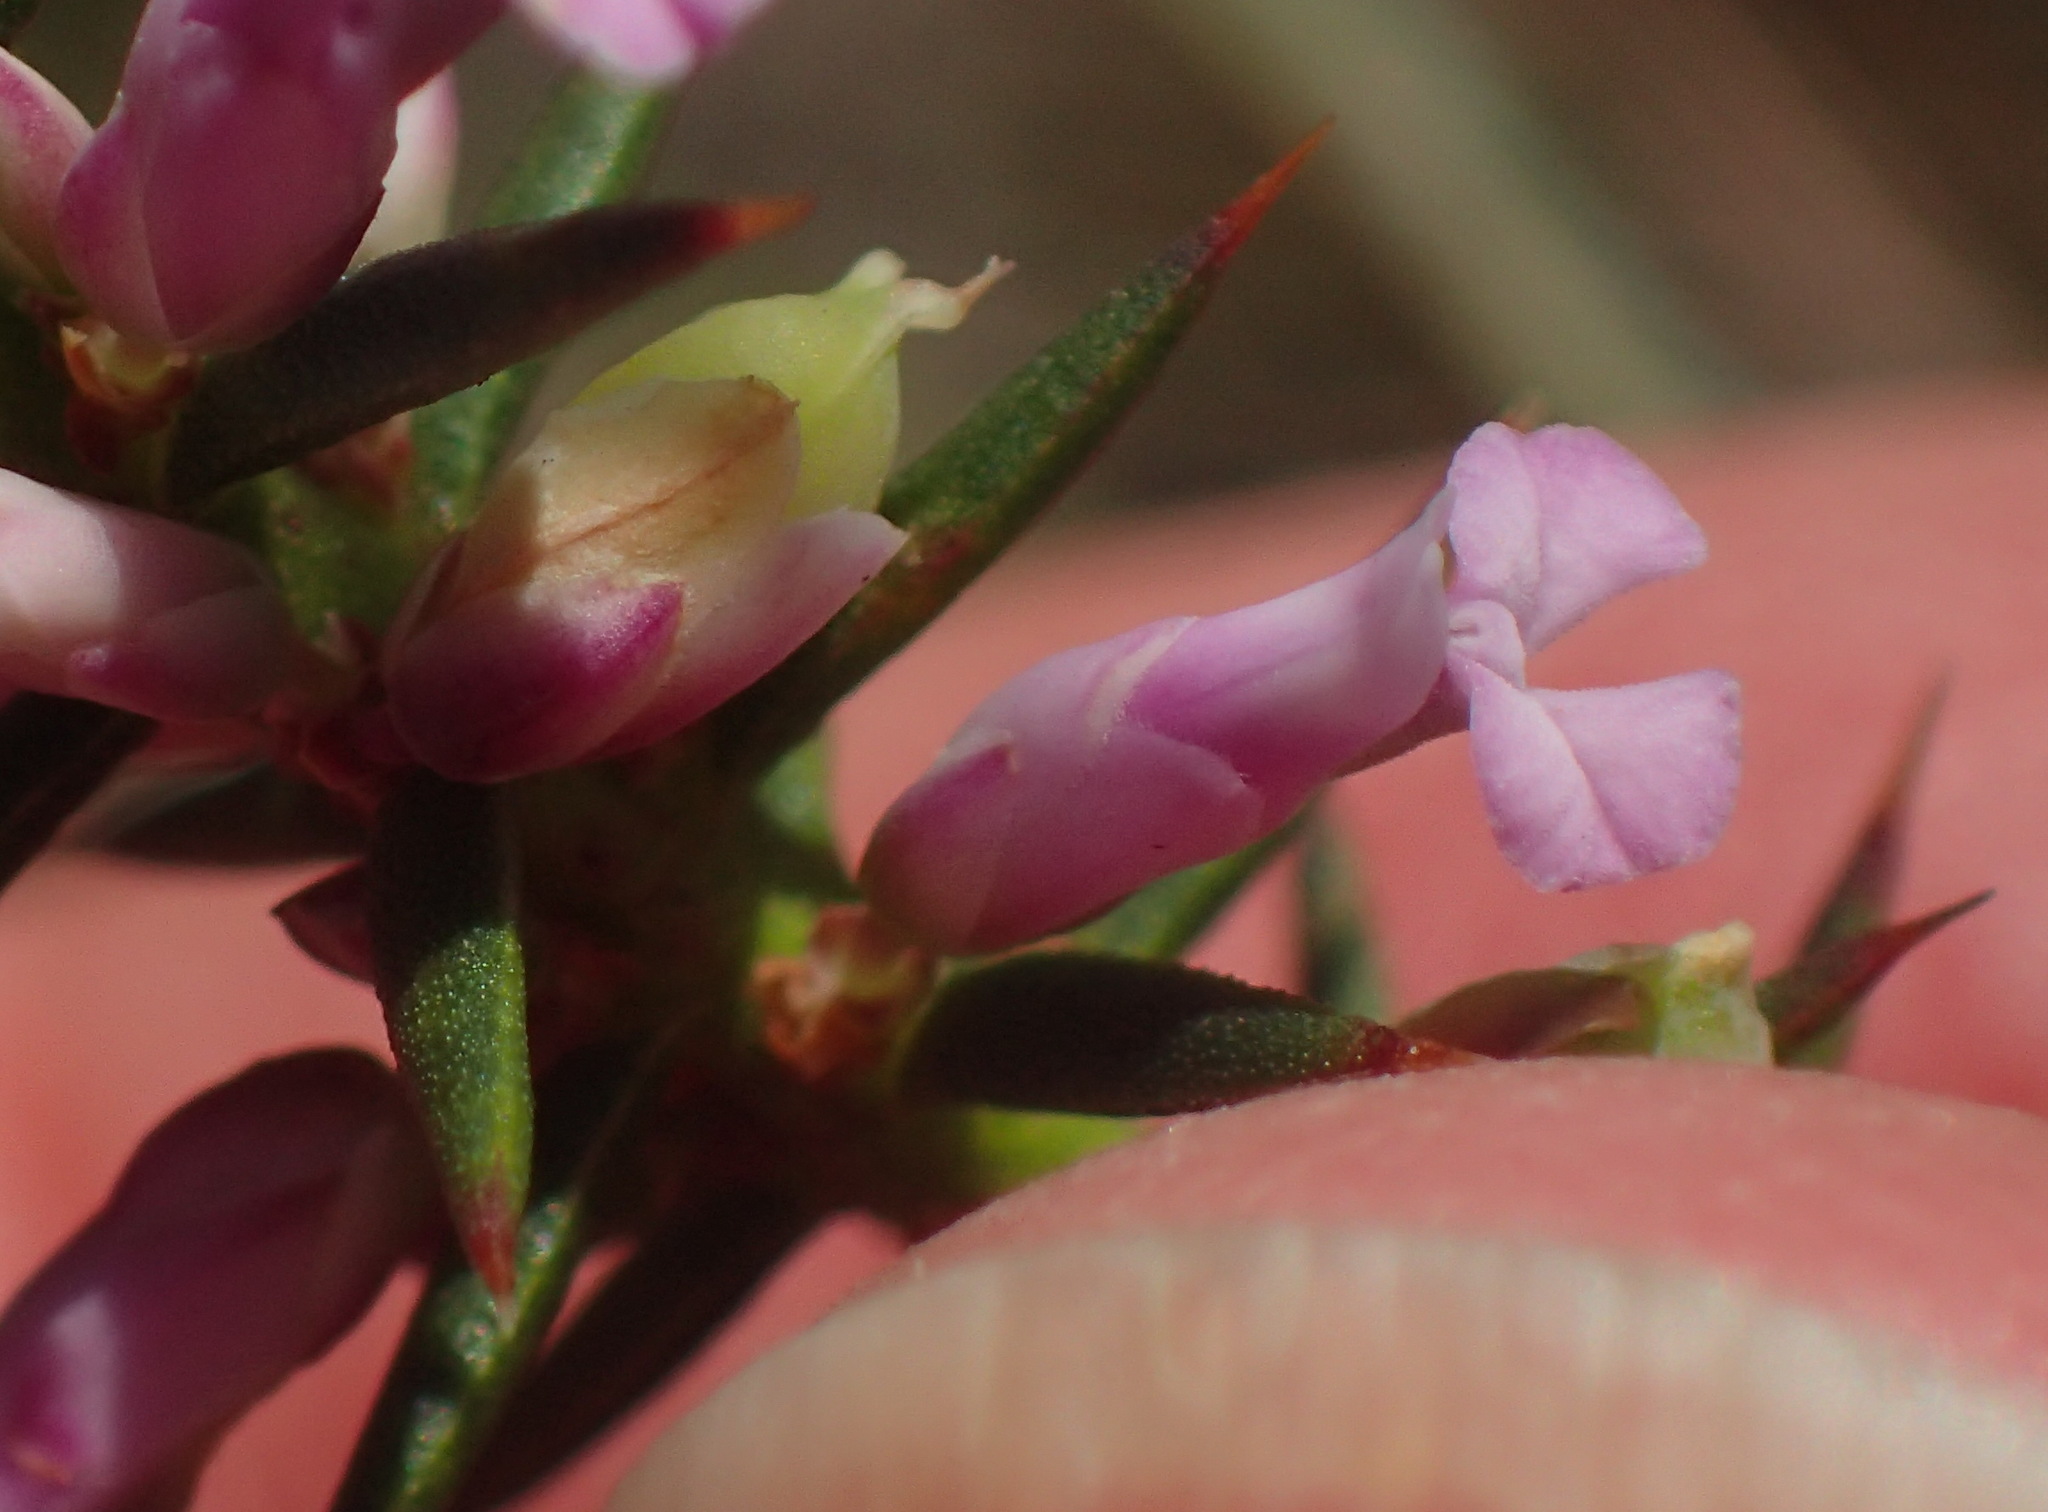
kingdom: Plantae
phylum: Tracheophyta
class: Magnoliopsida
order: Fabales
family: Polygalaceae
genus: Muraltia
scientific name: Muraltia juniperifolia
